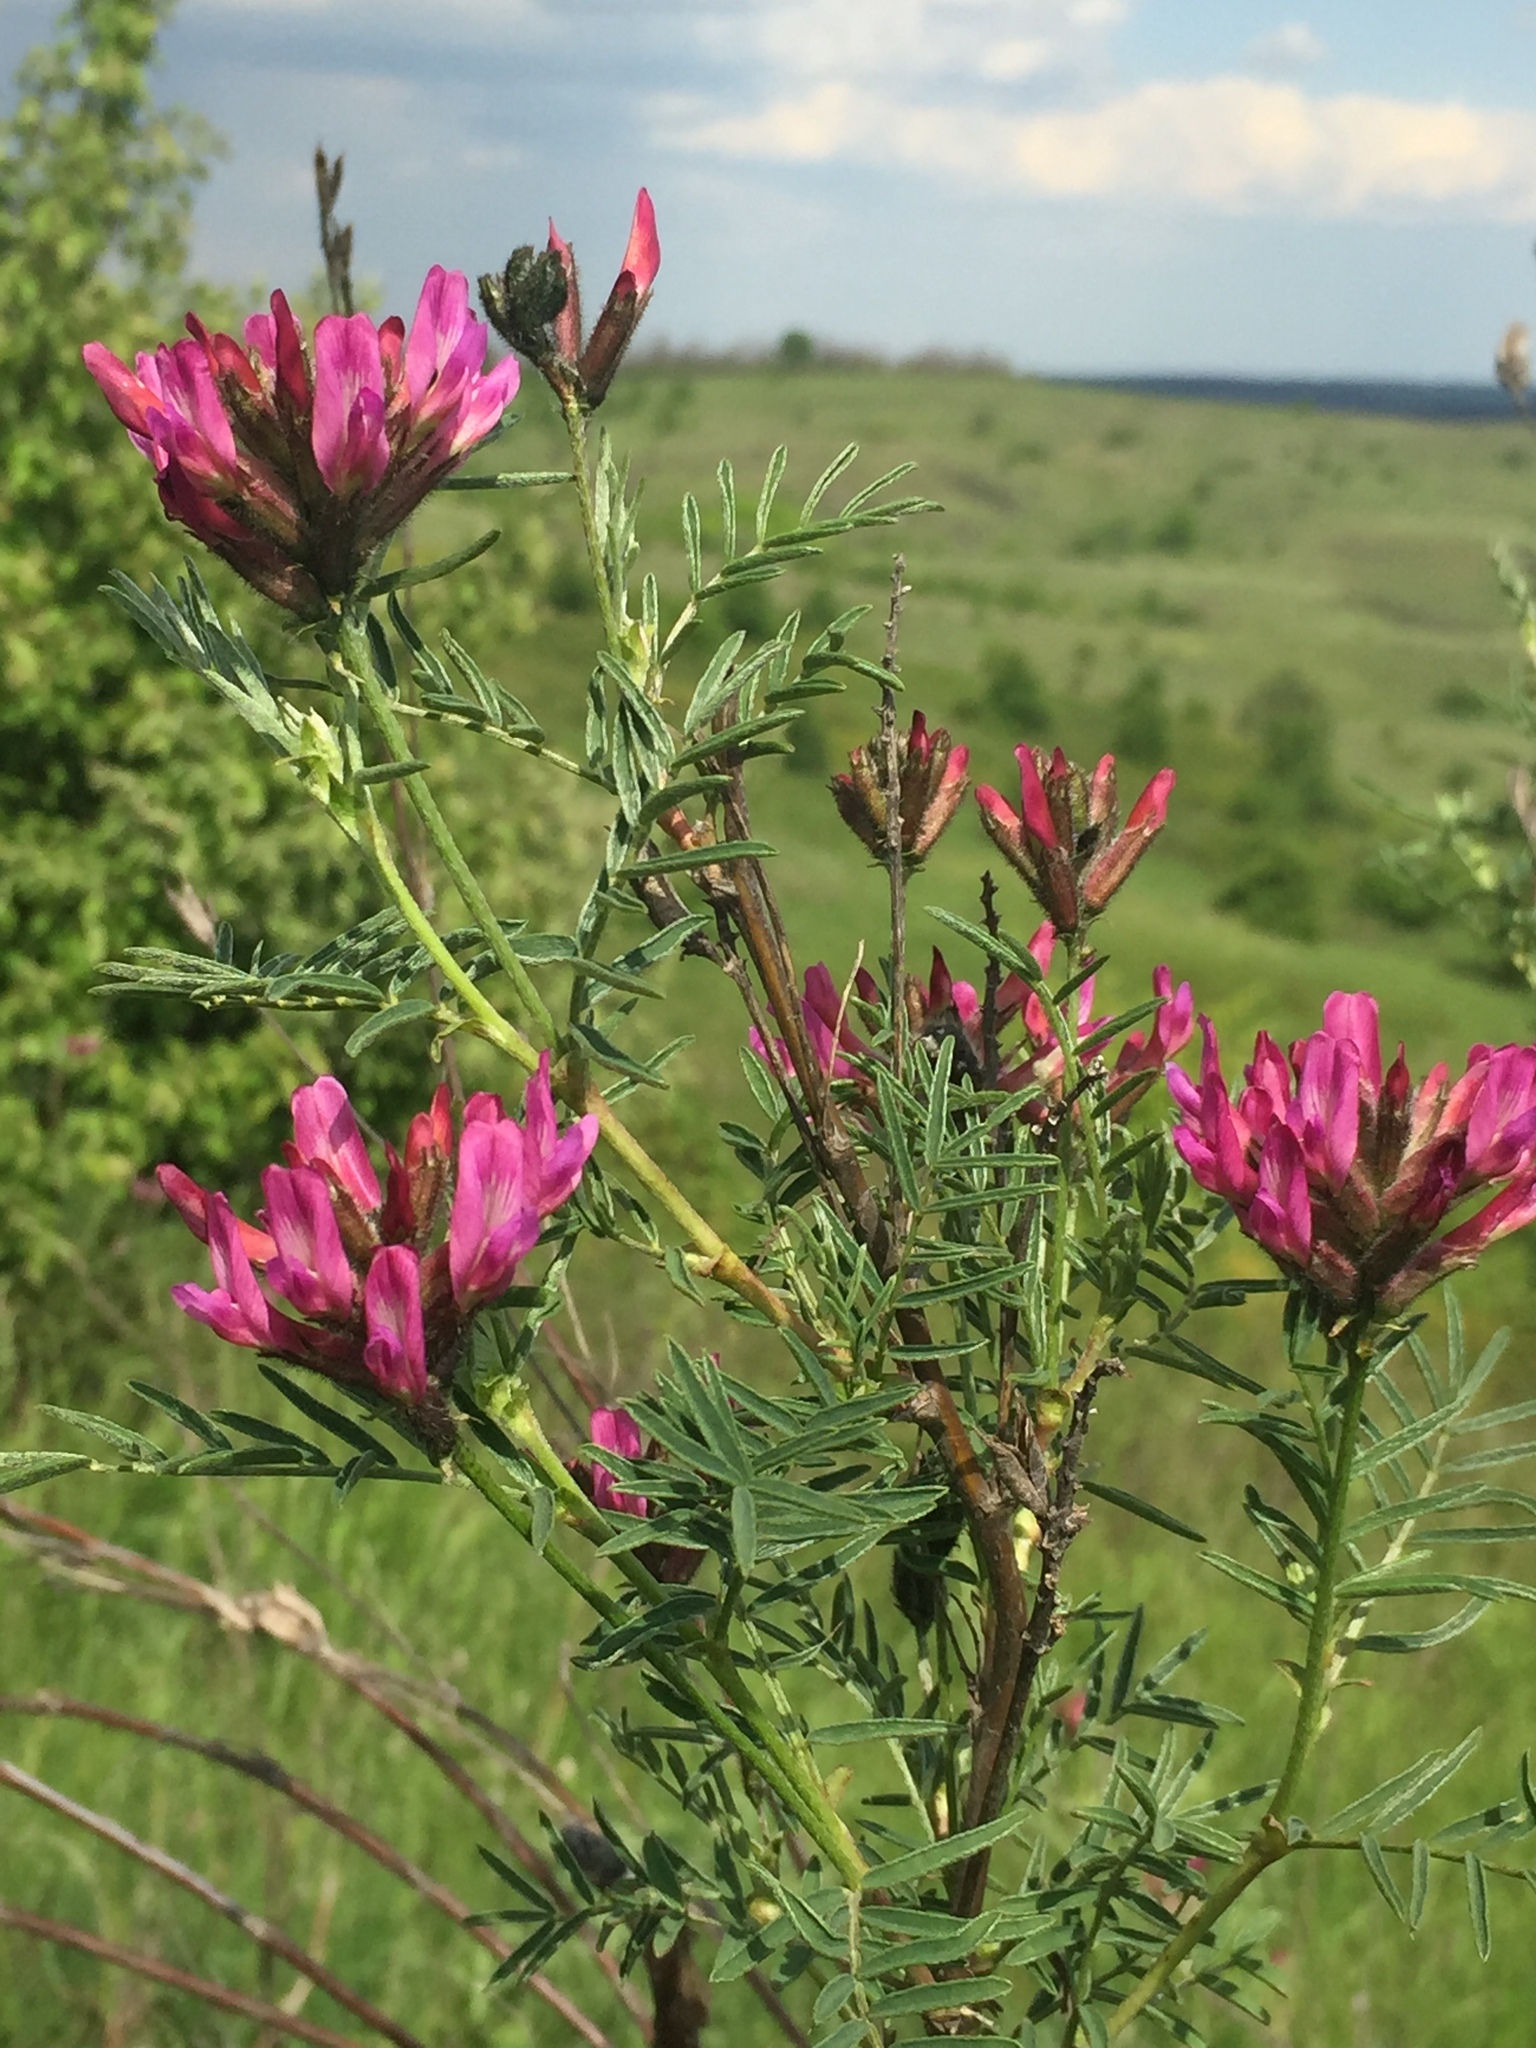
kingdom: Plantae
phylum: Tracheophyta
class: Magnoliopsida
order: Fabales
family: Fabaceae
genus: Astragalus
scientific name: Astragalus cornutus
